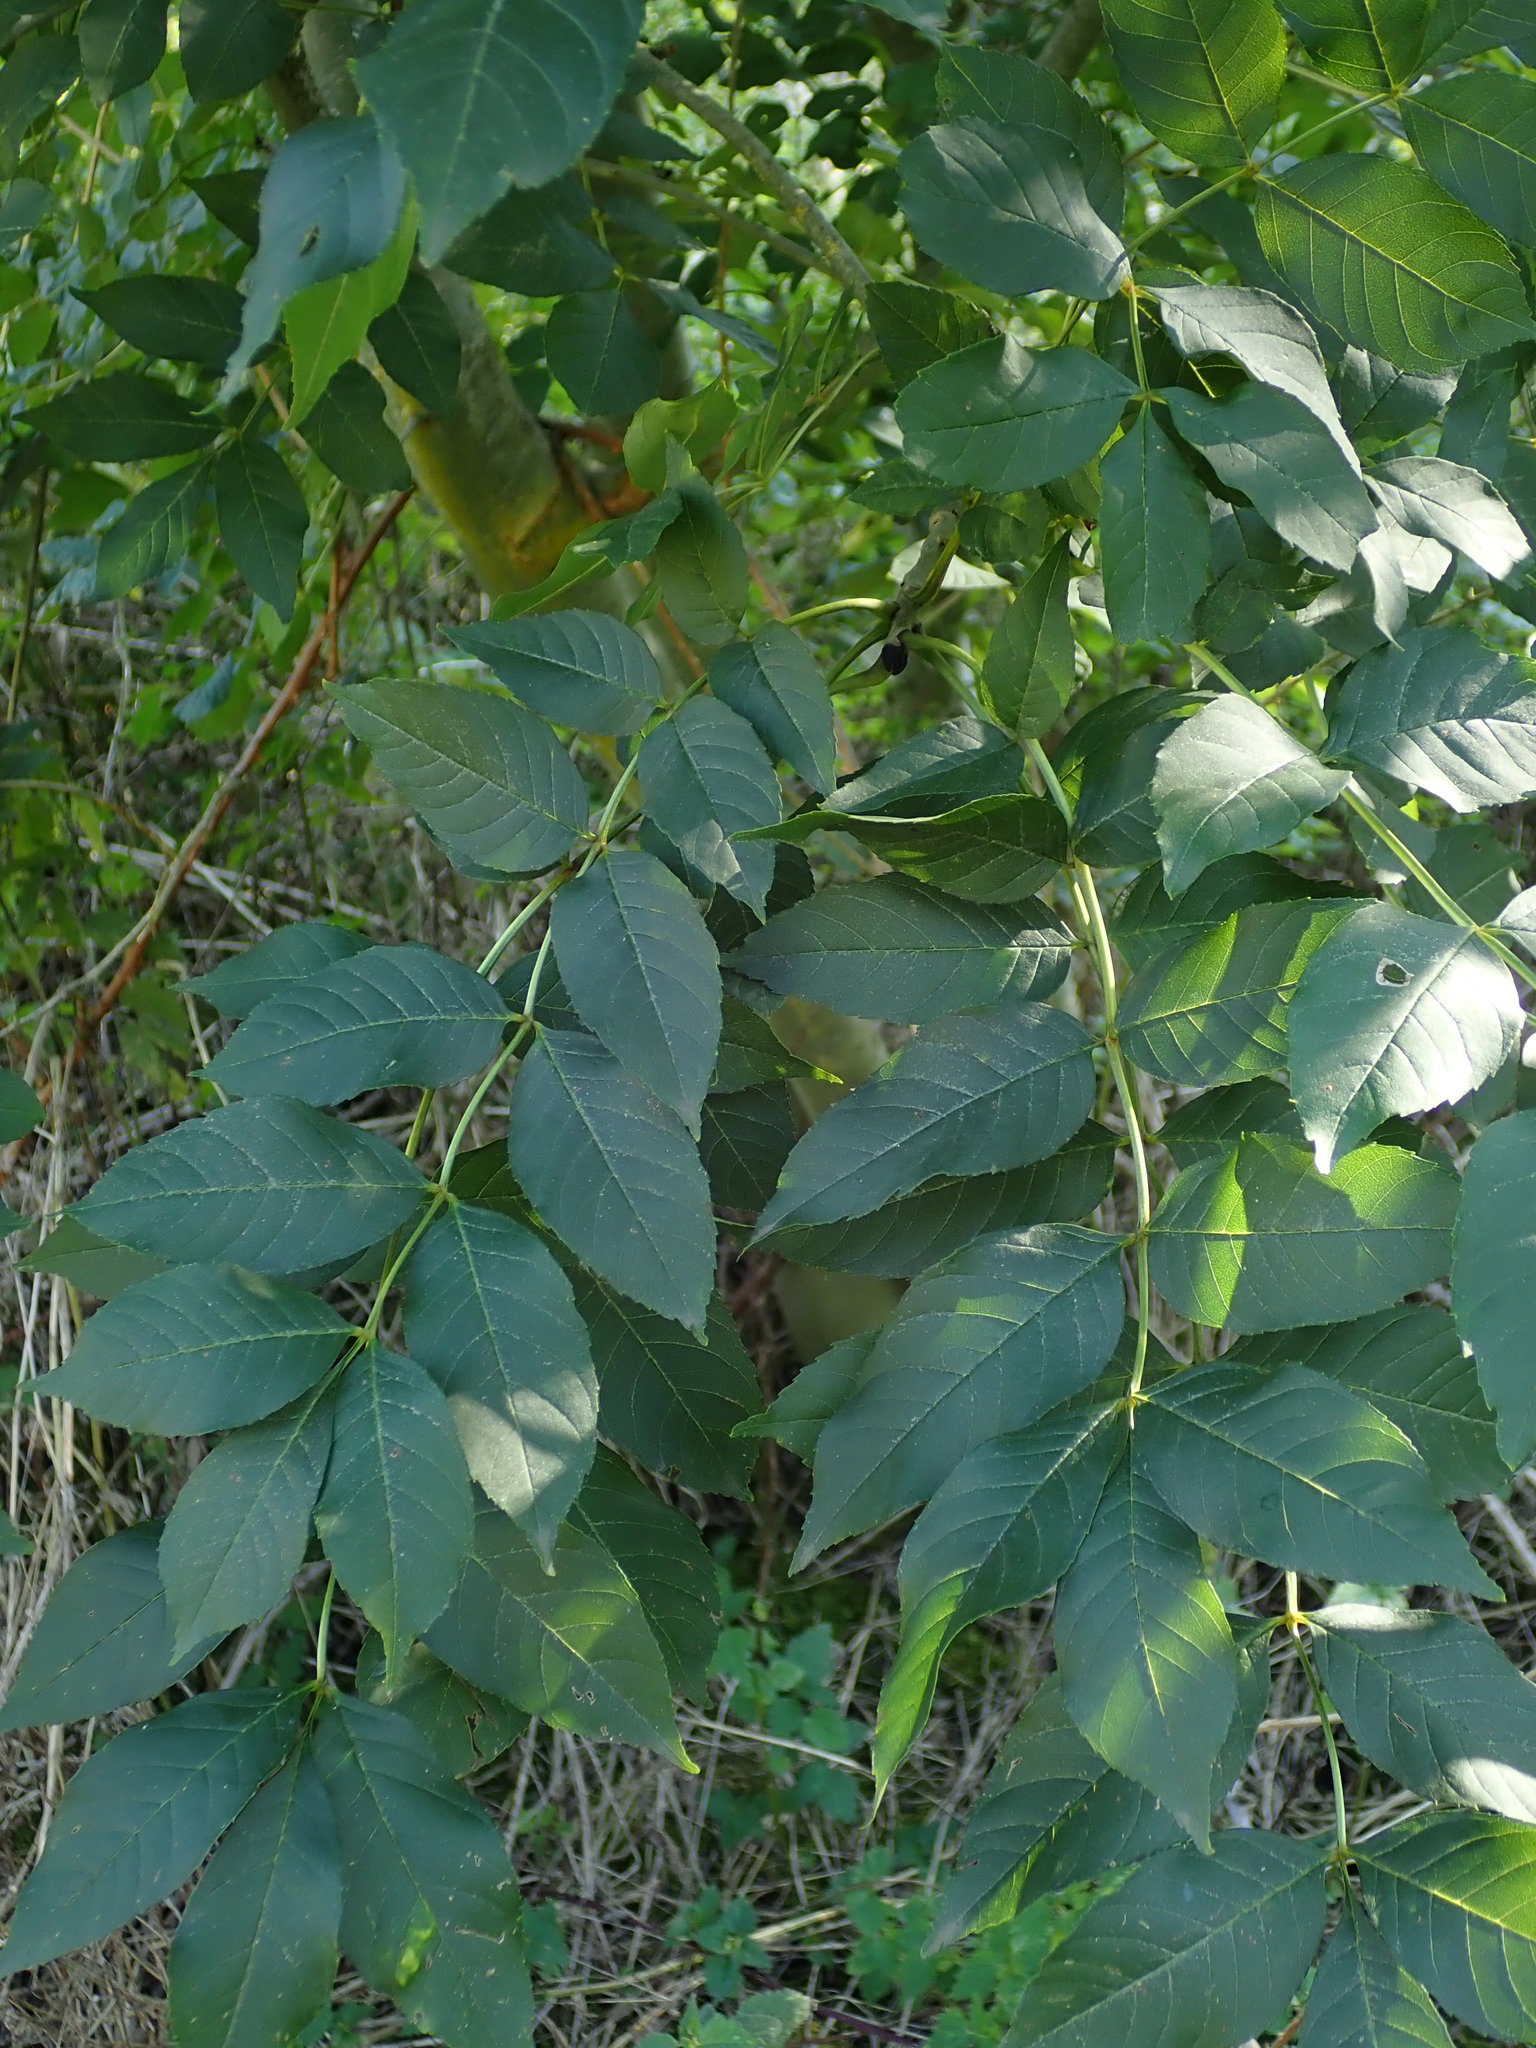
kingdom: Plantae
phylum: Tracheophyta
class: Magnoliopsida
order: Lamiales
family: Oleaceae
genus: Fraxinus
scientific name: Fraxinus excelsior
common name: European ash
